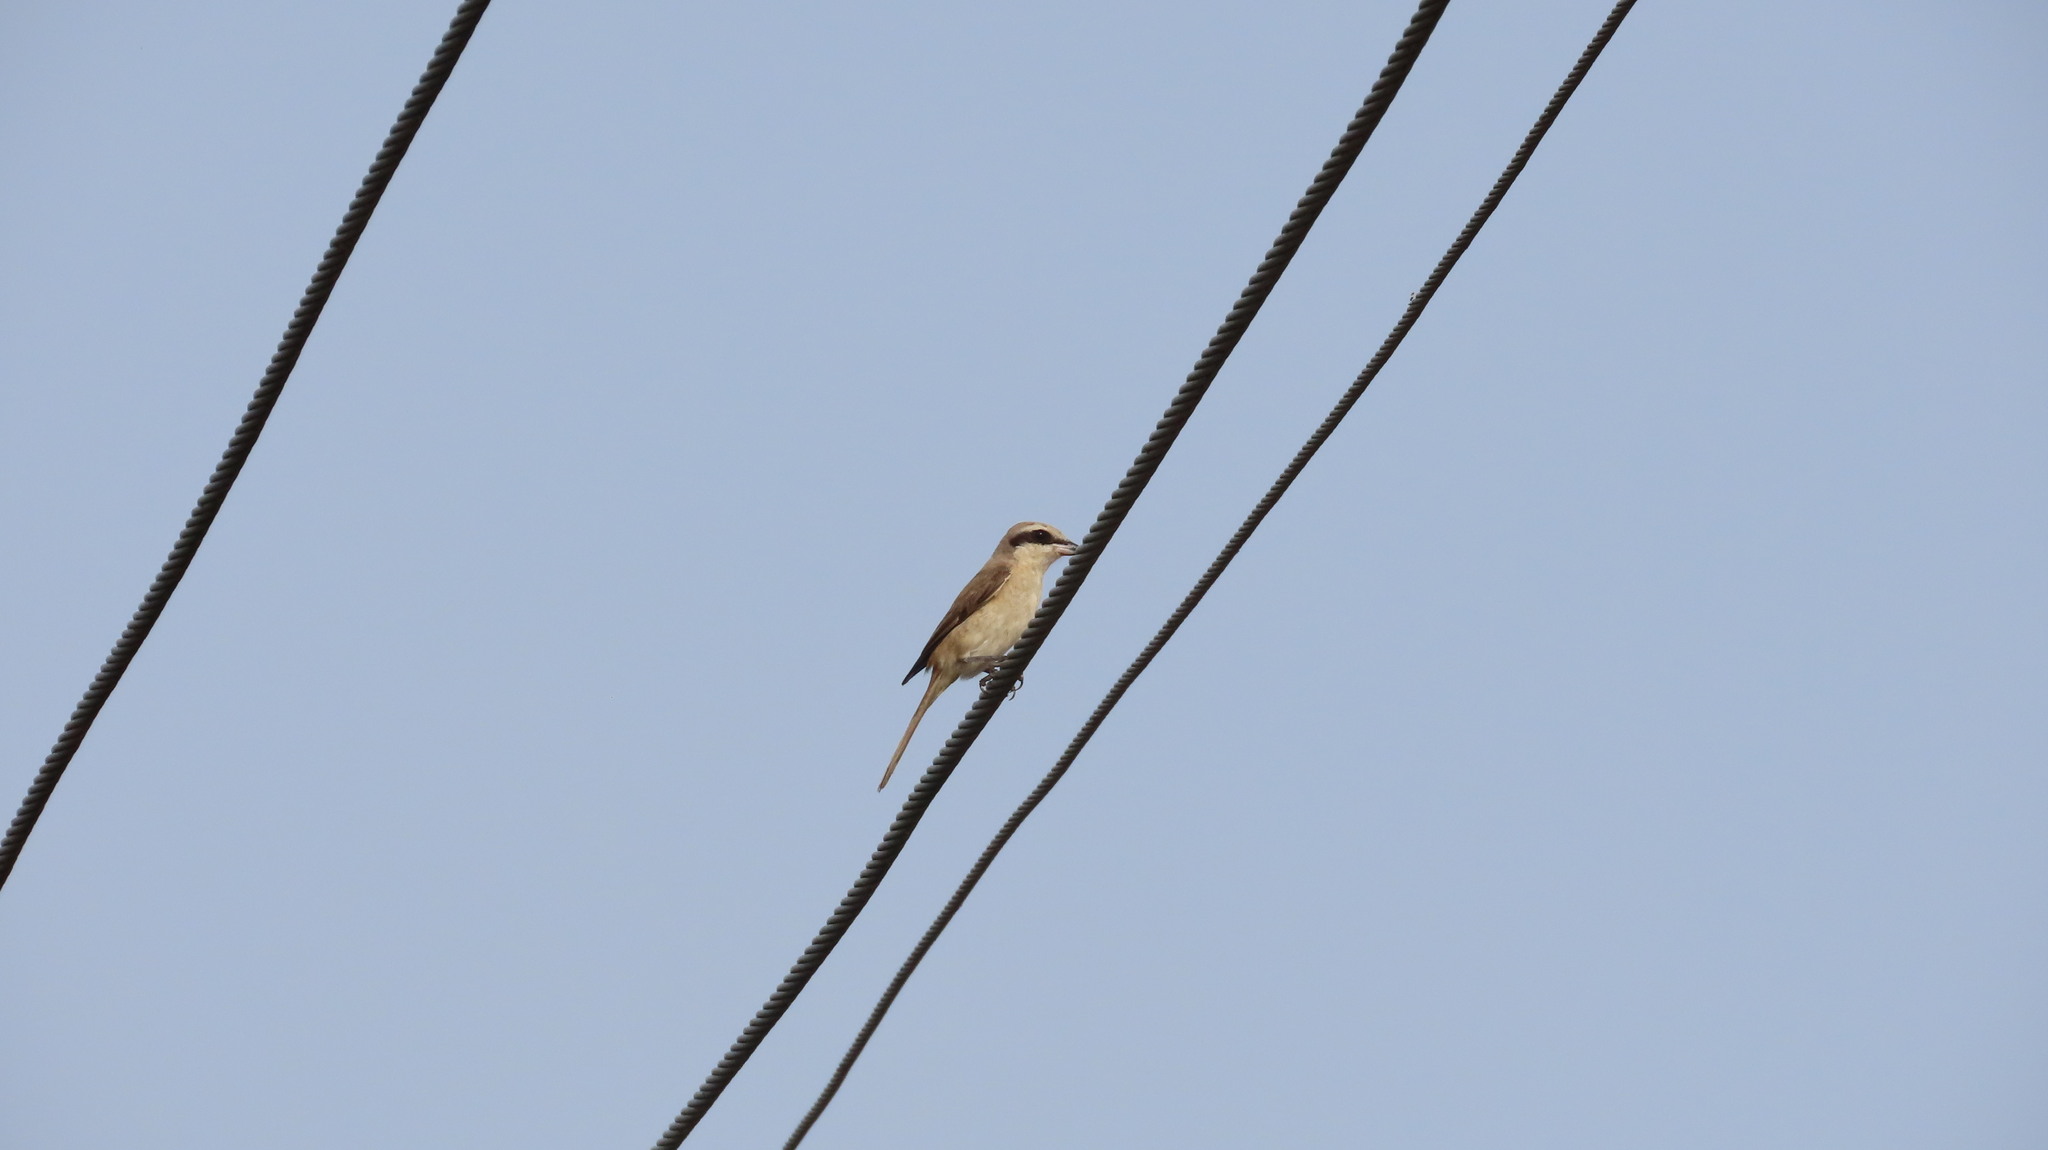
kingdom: Animalia
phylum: Chordata
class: Aves
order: Passeriformes
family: Laniidae
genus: Lanius
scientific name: Lanius cristatus
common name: Brown shrike
